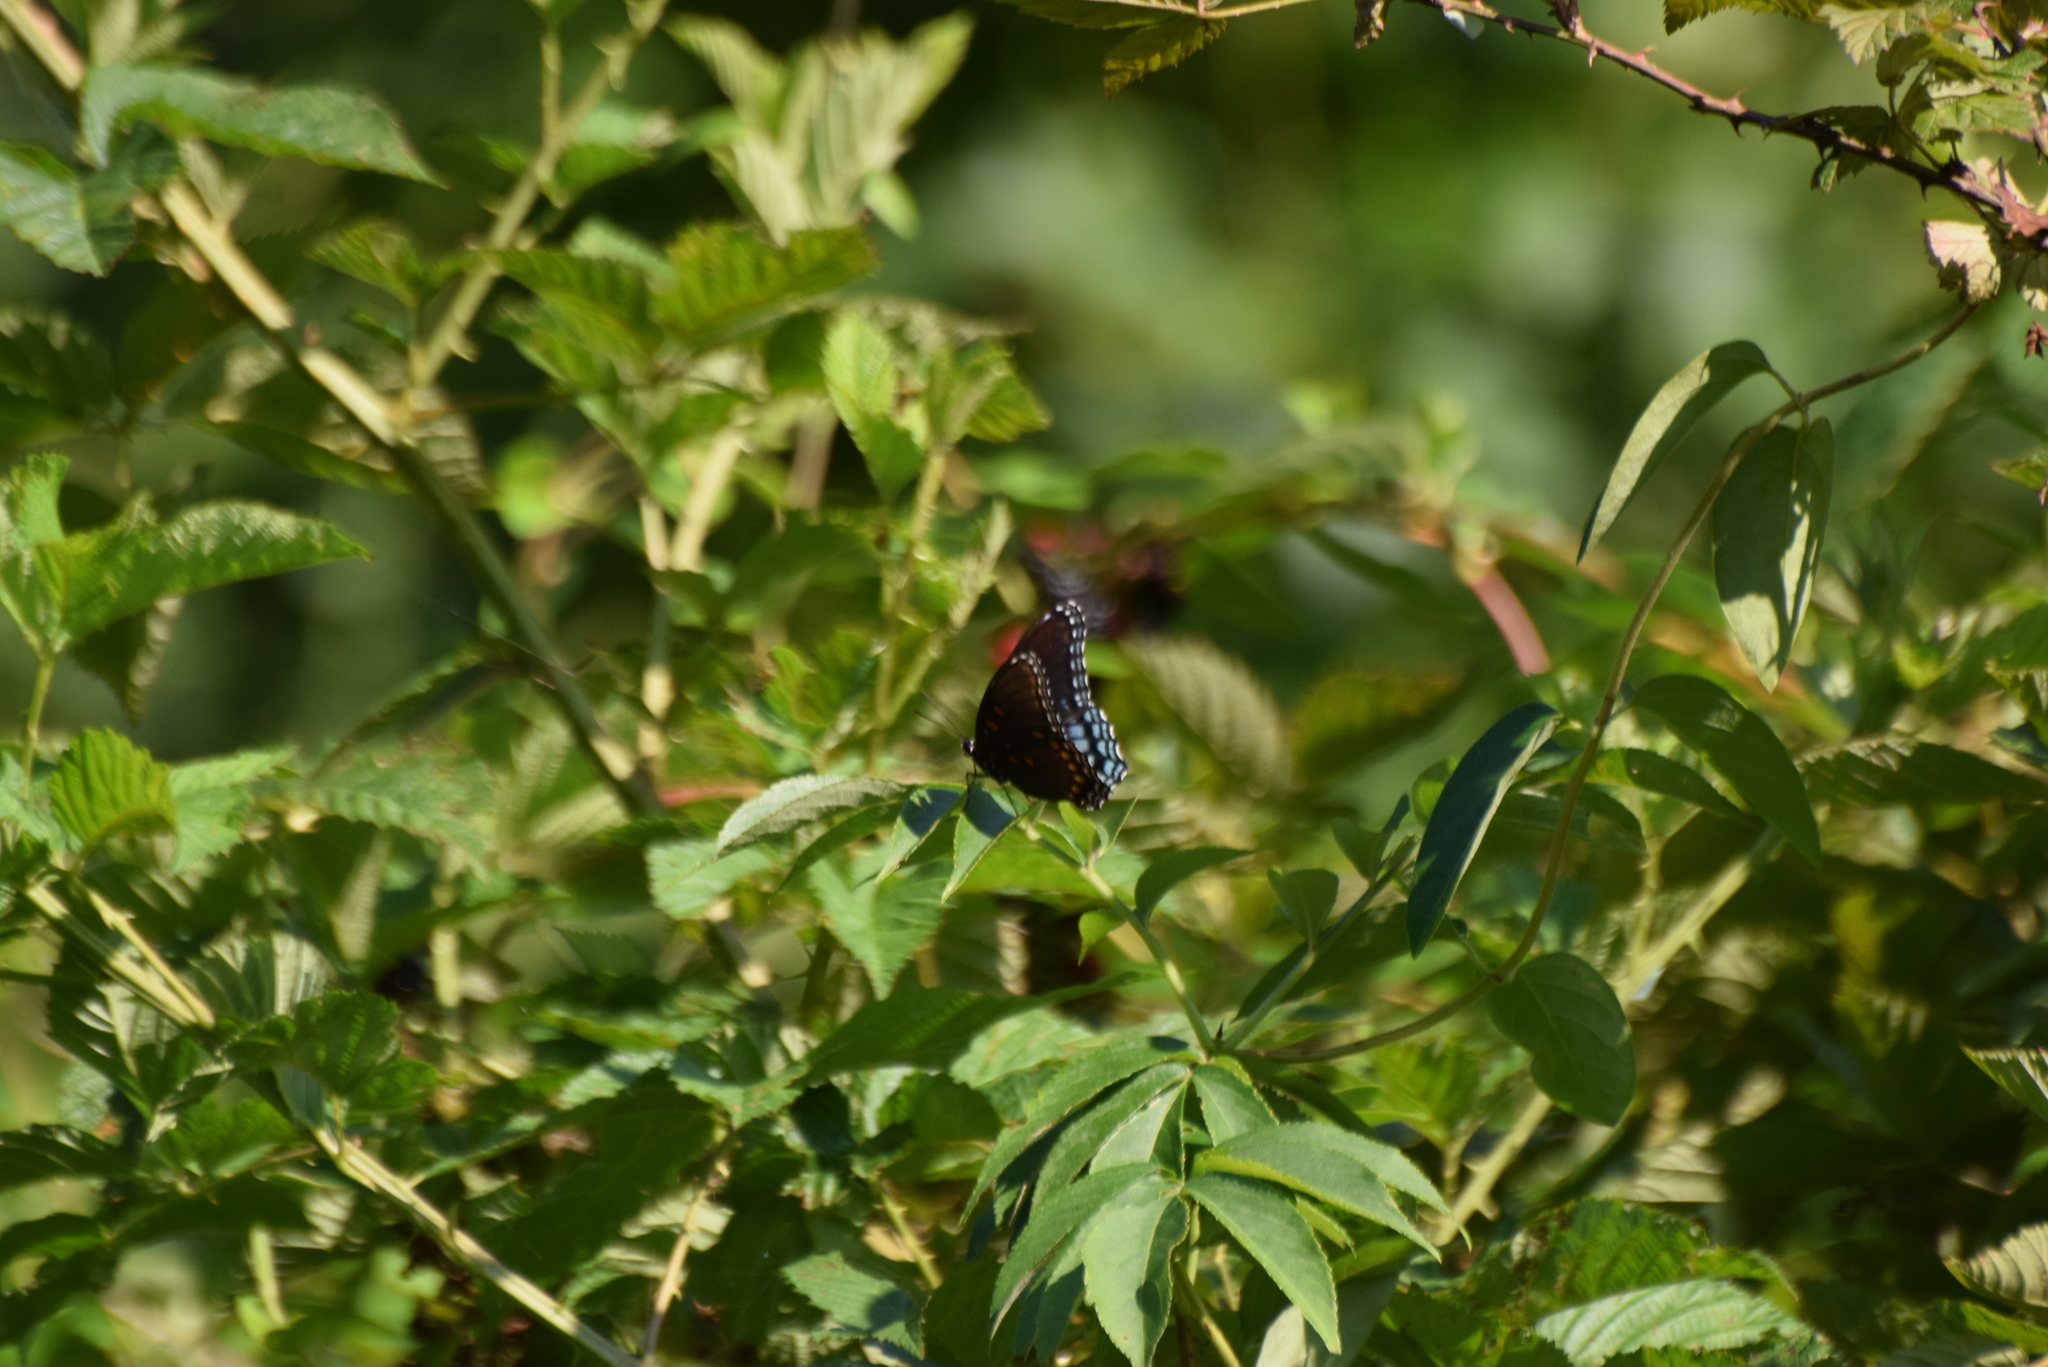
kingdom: Animalia
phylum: Arthropoda
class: Insecta
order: Lepidoptera
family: Nymphalidae
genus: Limenitis
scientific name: Limenitis astyanax
